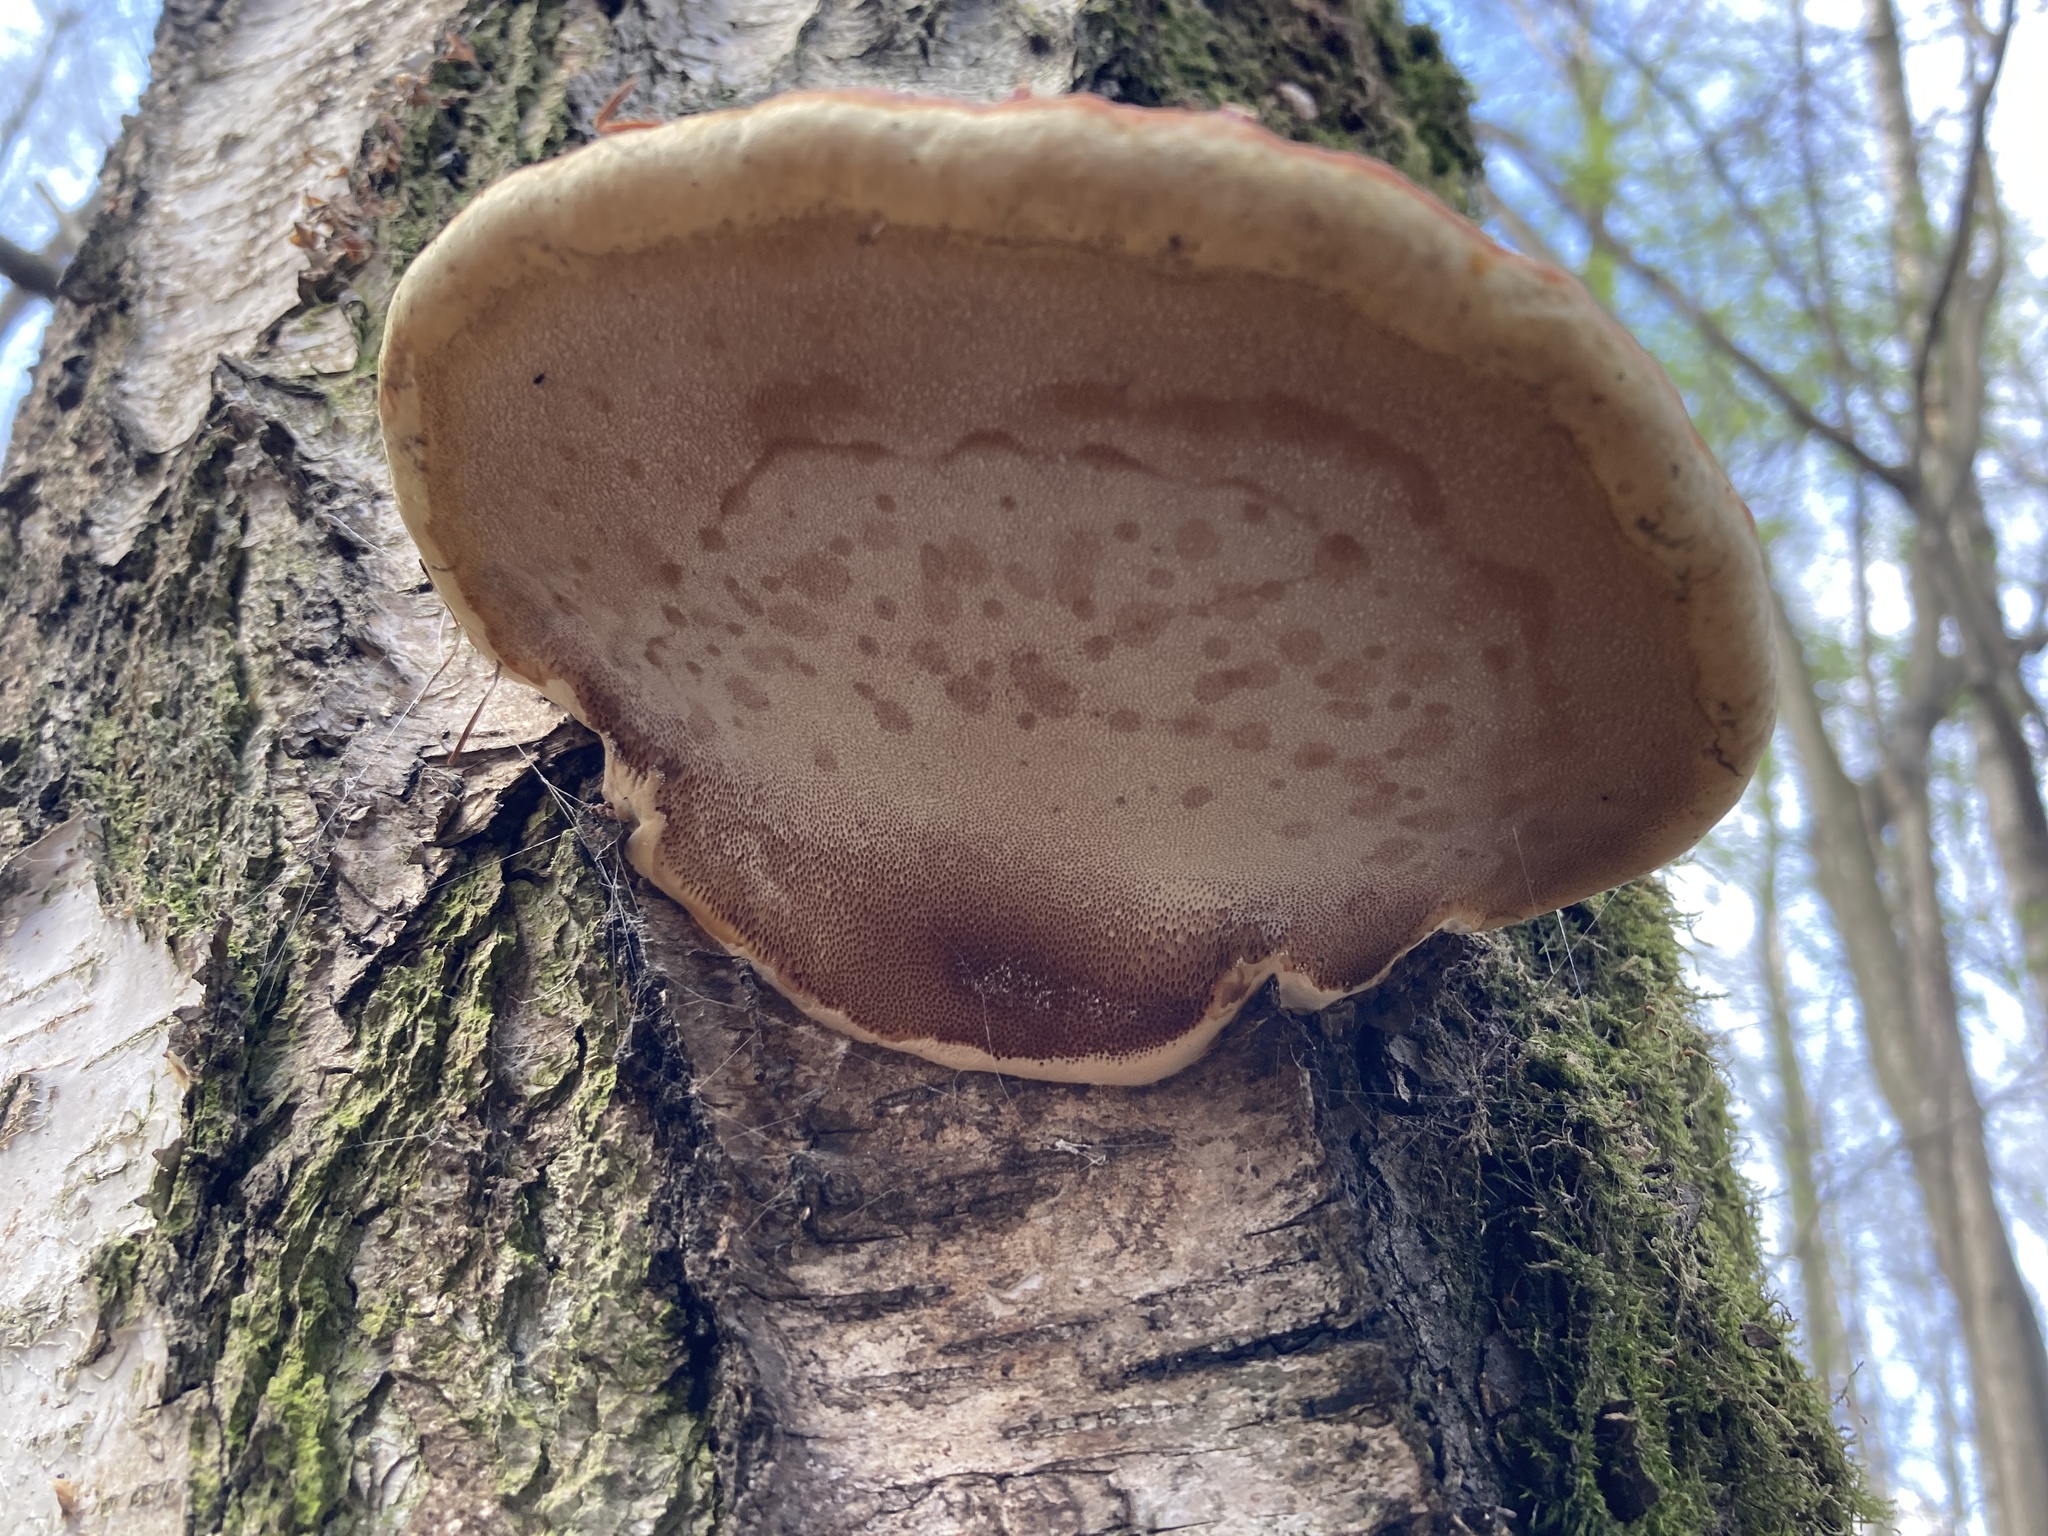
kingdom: Fungi
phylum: Basidiomycota
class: Agaricomycetes
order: Polyporales
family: Fomitopsidaceae
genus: Fomitopsis
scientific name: Fomitopsis pinicola
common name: Red-belted bracket
